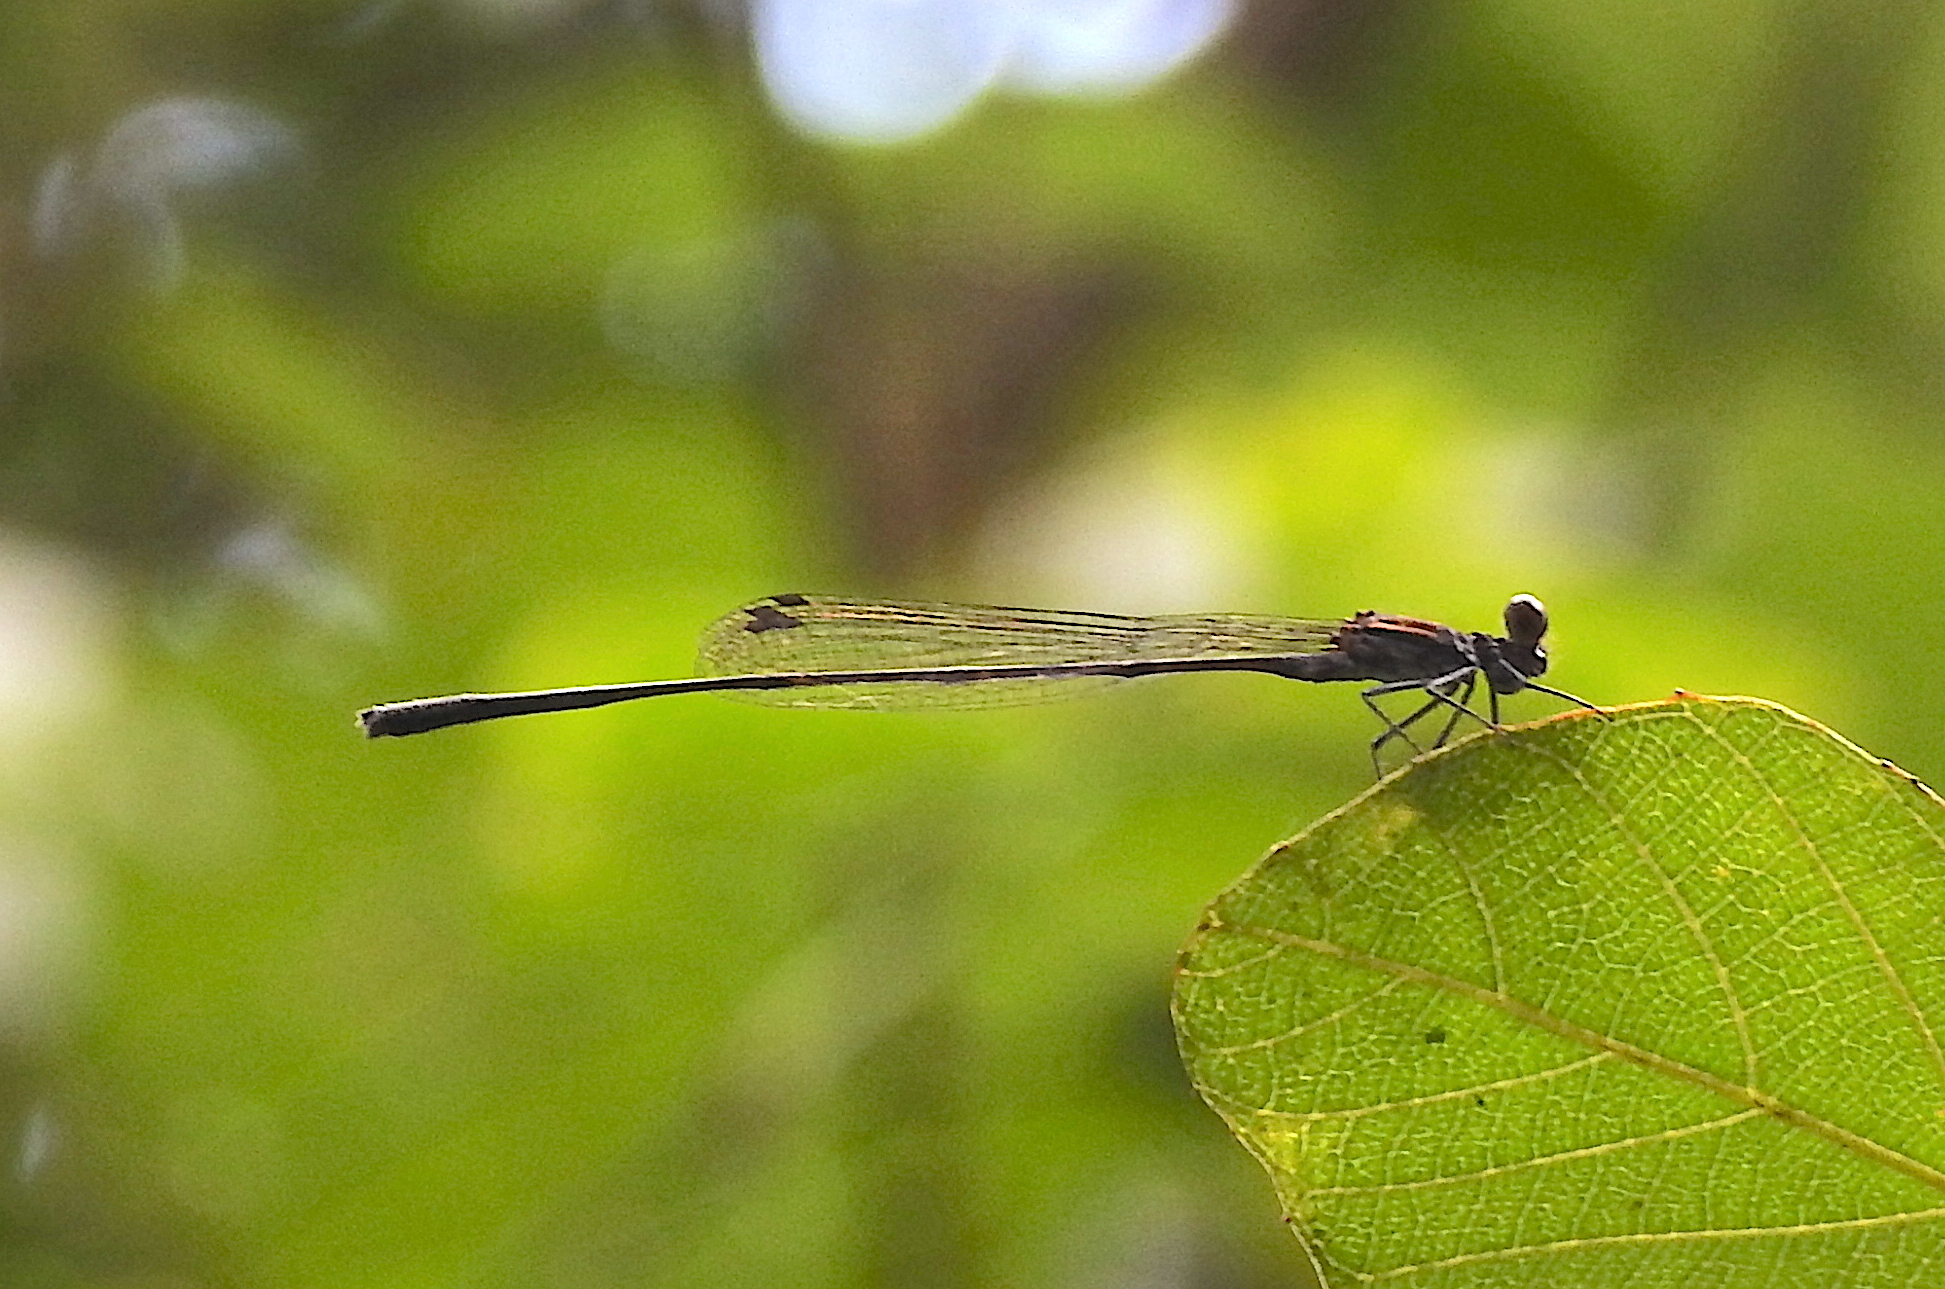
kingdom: Animalia
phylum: Arthropoda
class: Insecta
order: Odonata
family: Platycnemididae
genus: Prodasineura
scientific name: Prodasineura verticalis
